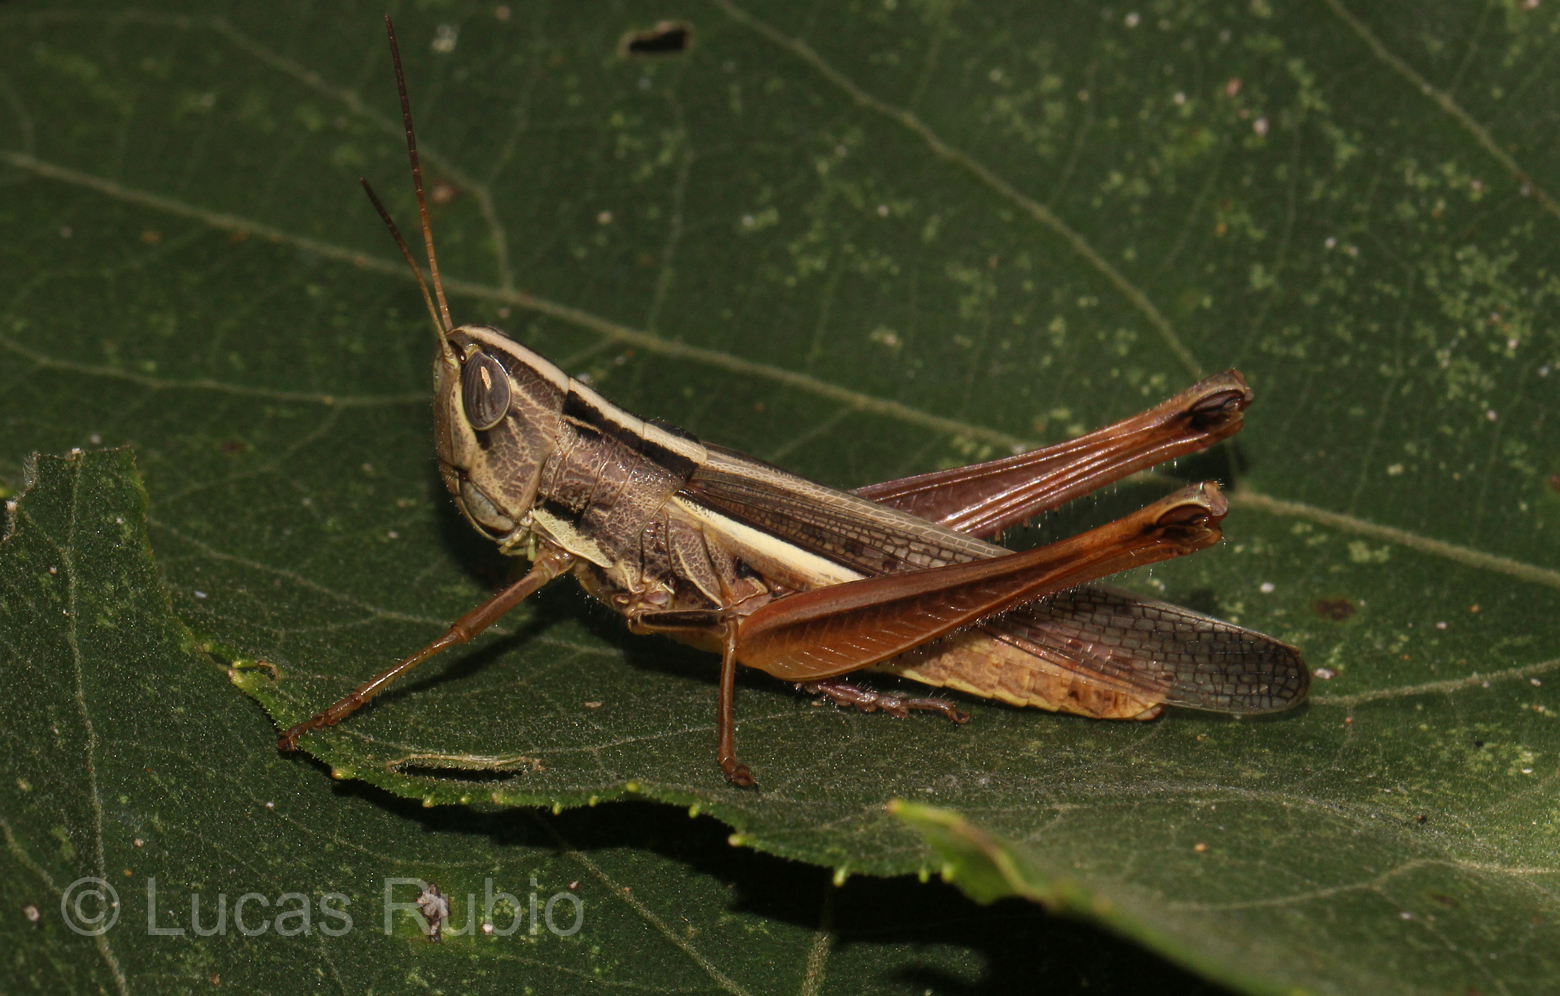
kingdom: Animalia
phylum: Arthropoda
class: Insecta
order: Orthoptera
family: Acrididae
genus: Staurorhectus
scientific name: Staurorhectus longicornis
